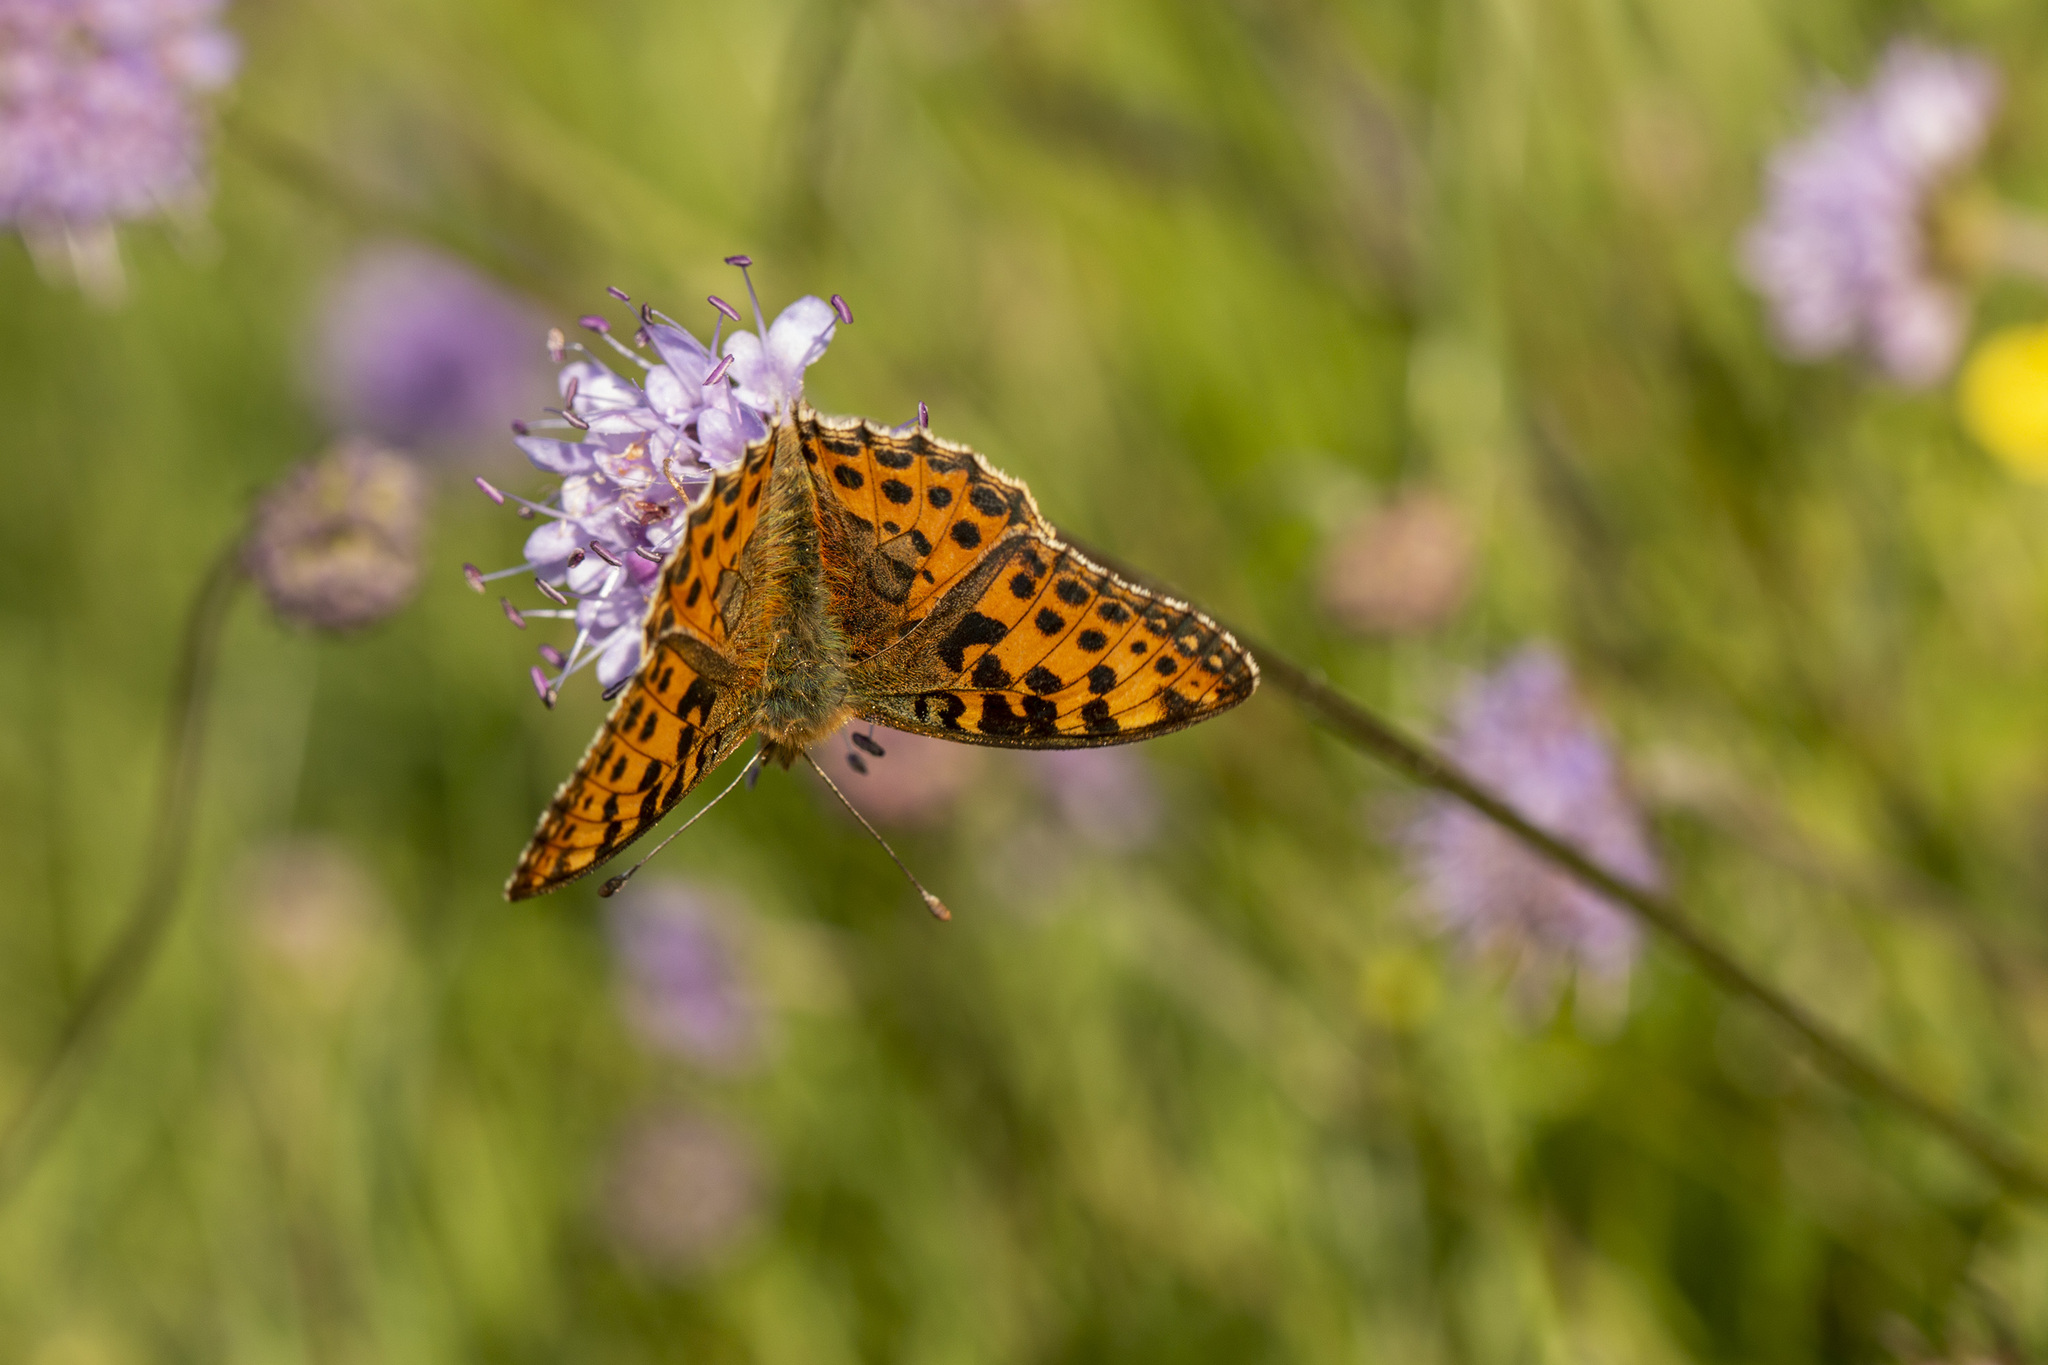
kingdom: Animalia
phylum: Arthropoda
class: Insecta
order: Lepidoptera
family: Nymphalidae
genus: Issoria
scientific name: Issoria lathonia
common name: Queen of spain fritillary
